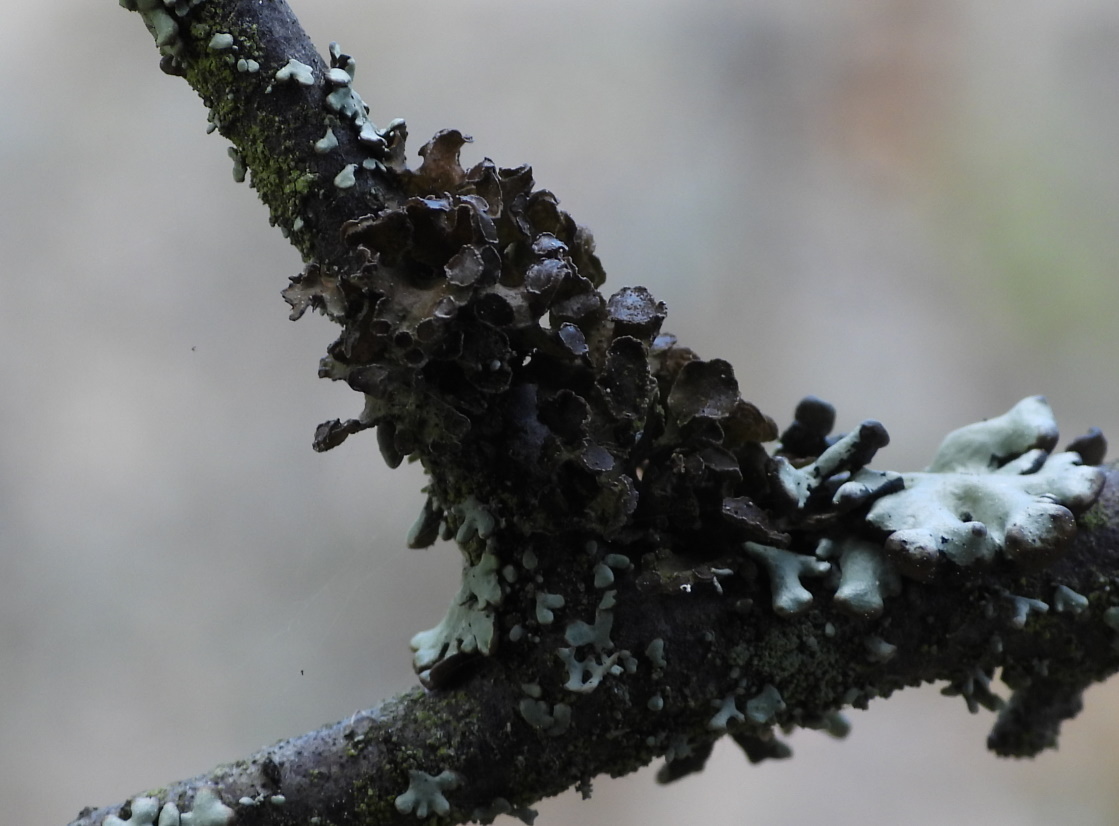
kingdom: Fungi
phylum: Ascomycota
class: Lecanoromycetes
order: Lecanorales
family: Parmeliaceae
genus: Cetraria
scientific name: Cetraria sepincola
